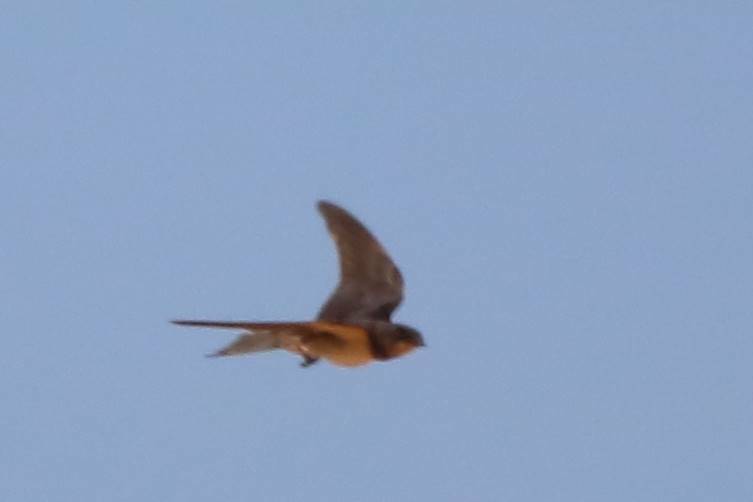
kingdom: Animalia
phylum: Chordata
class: Aves
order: Passeriformes
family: Hirundinidae
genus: Hirundo
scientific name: Hirundo rustica
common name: Barn swallow
